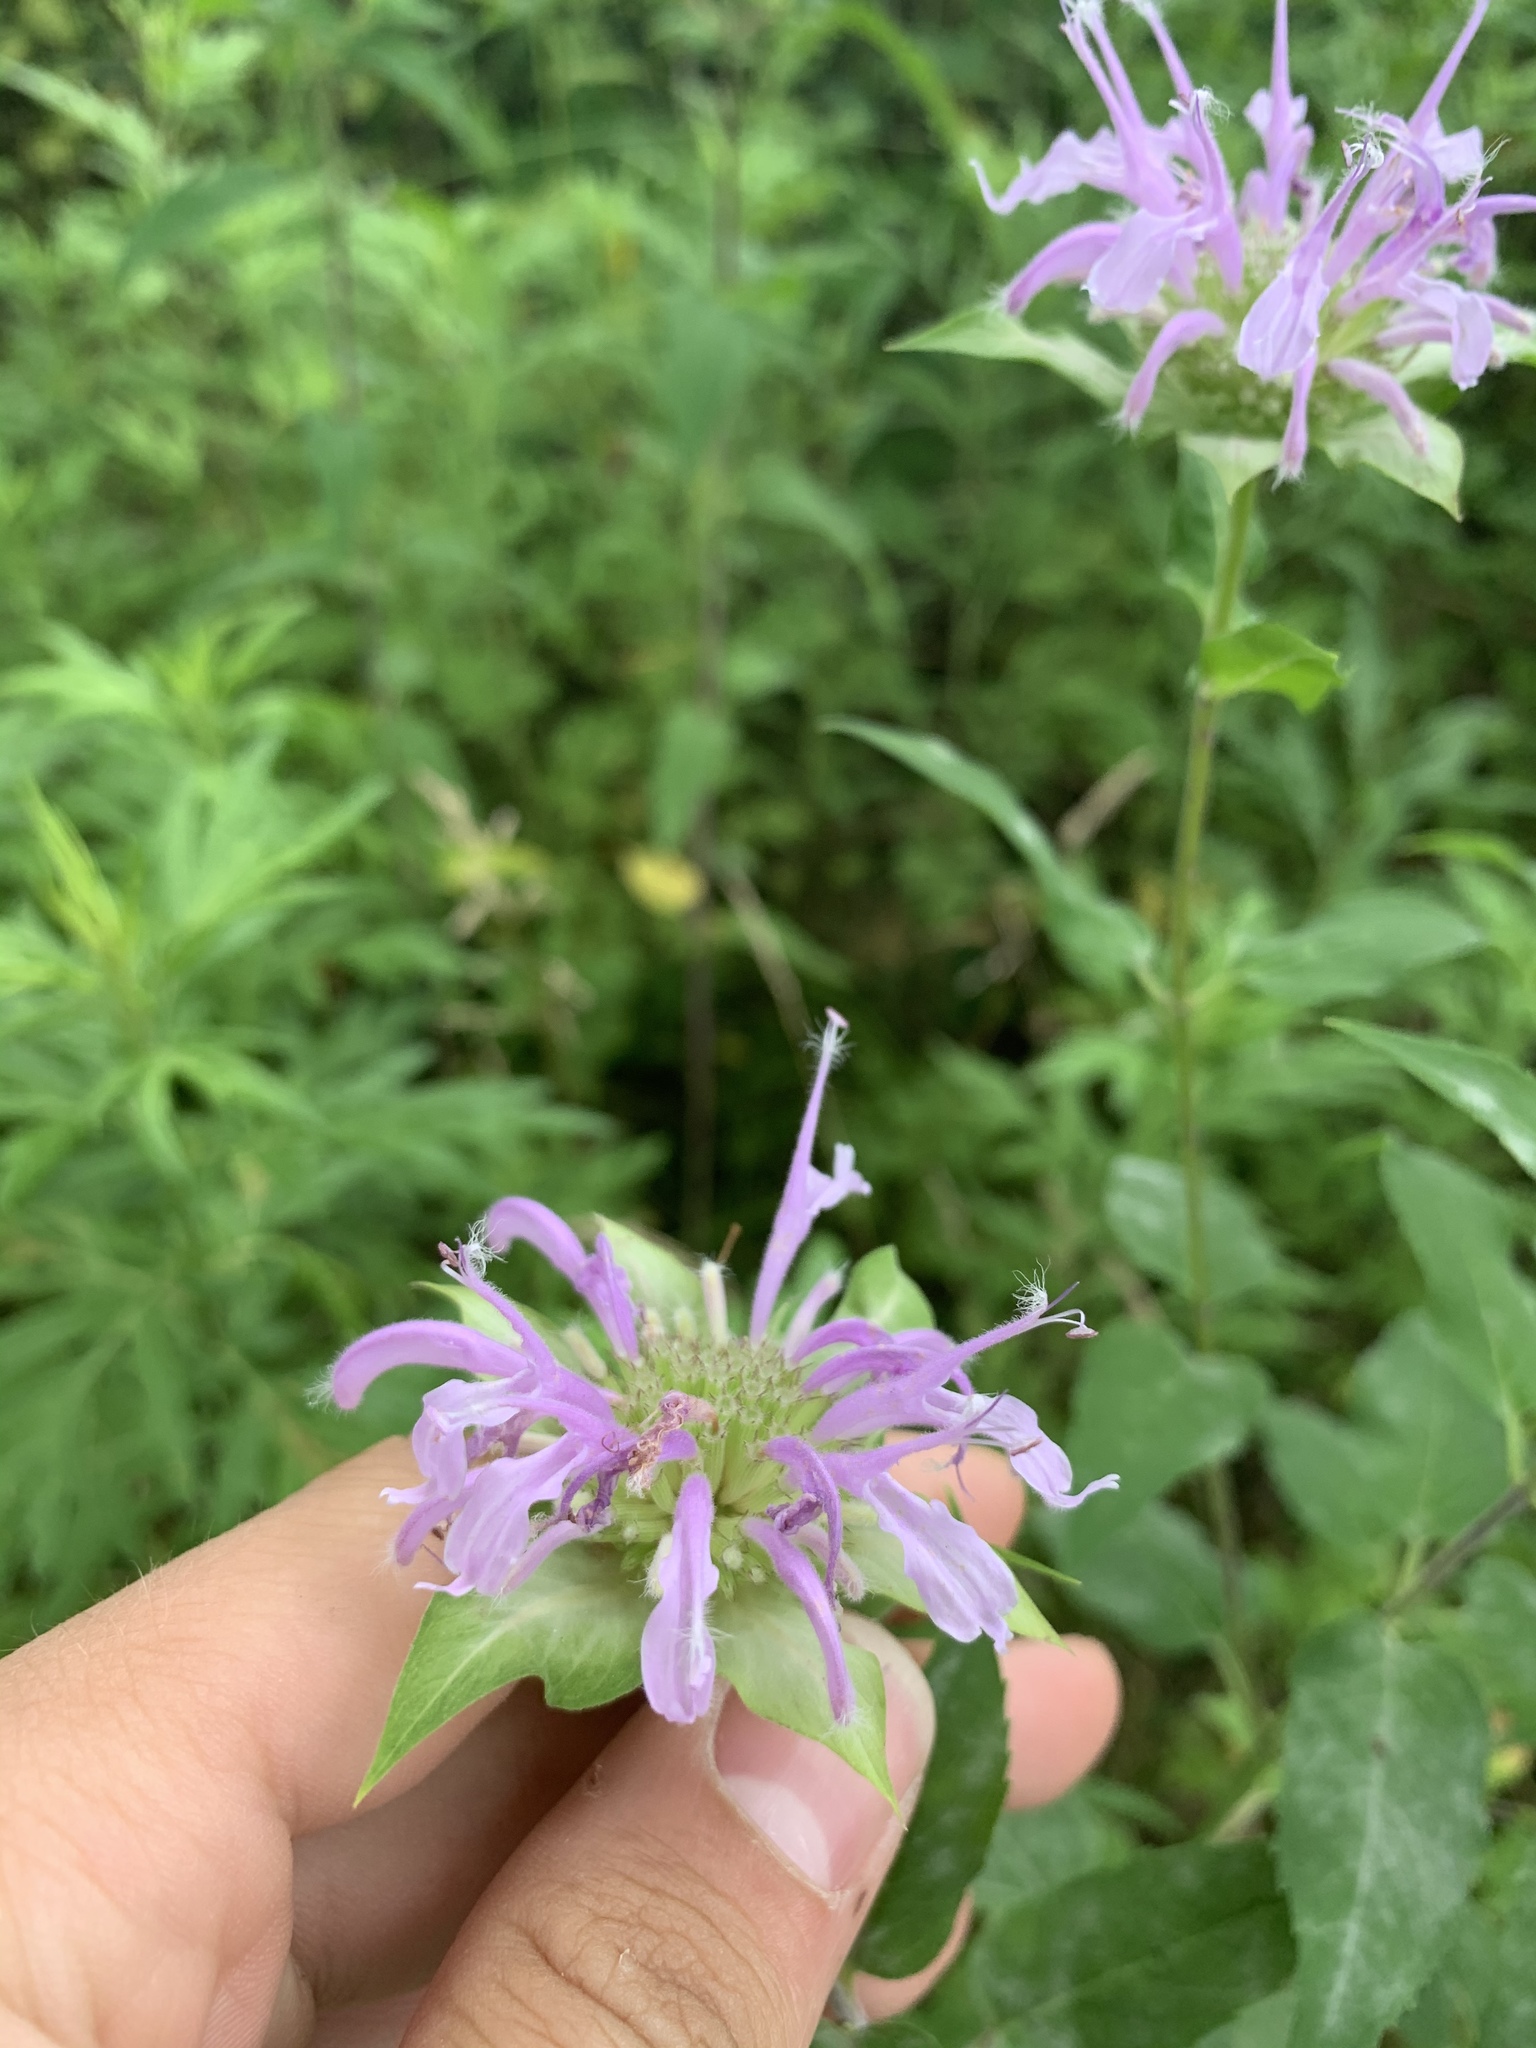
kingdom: Plantae
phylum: Tracheophyta
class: Magnoliopsida
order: Lamiales
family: Lamiaceae
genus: Monarda
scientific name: Monarda fistulosa
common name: Purple beebalm
